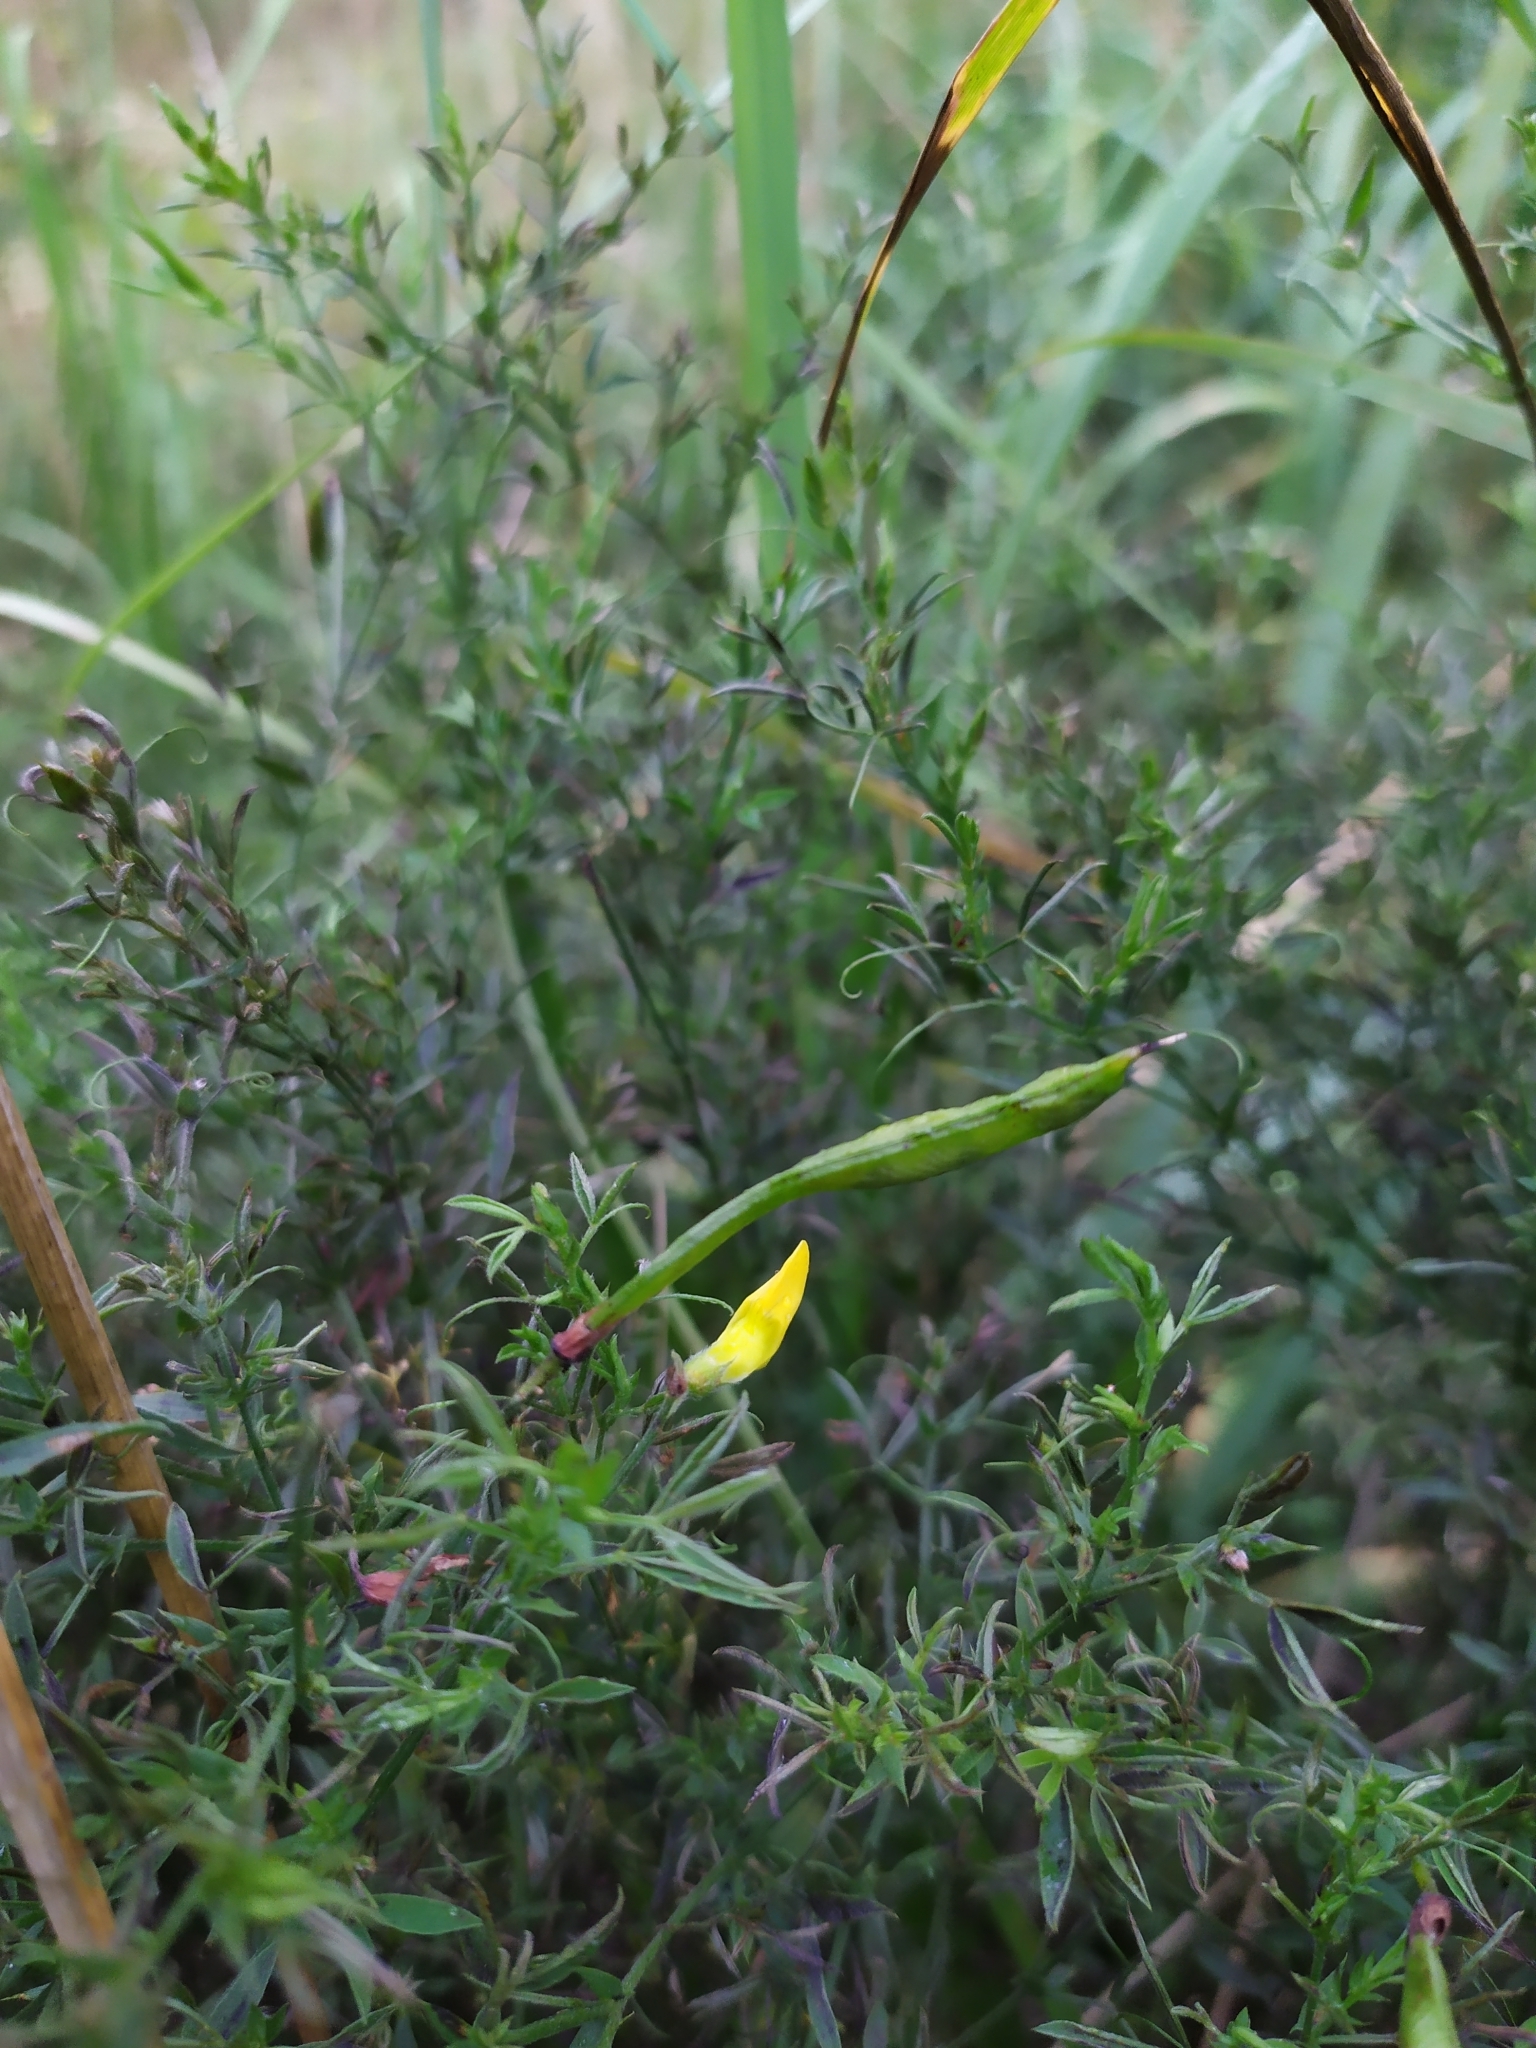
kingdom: Plantae
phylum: Tracheophyta
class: Magnoliopsida
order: Fabales
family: Fabaceae
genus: Lathyrus
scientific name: Lathyrus pratensis
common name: Meadow vetchling
